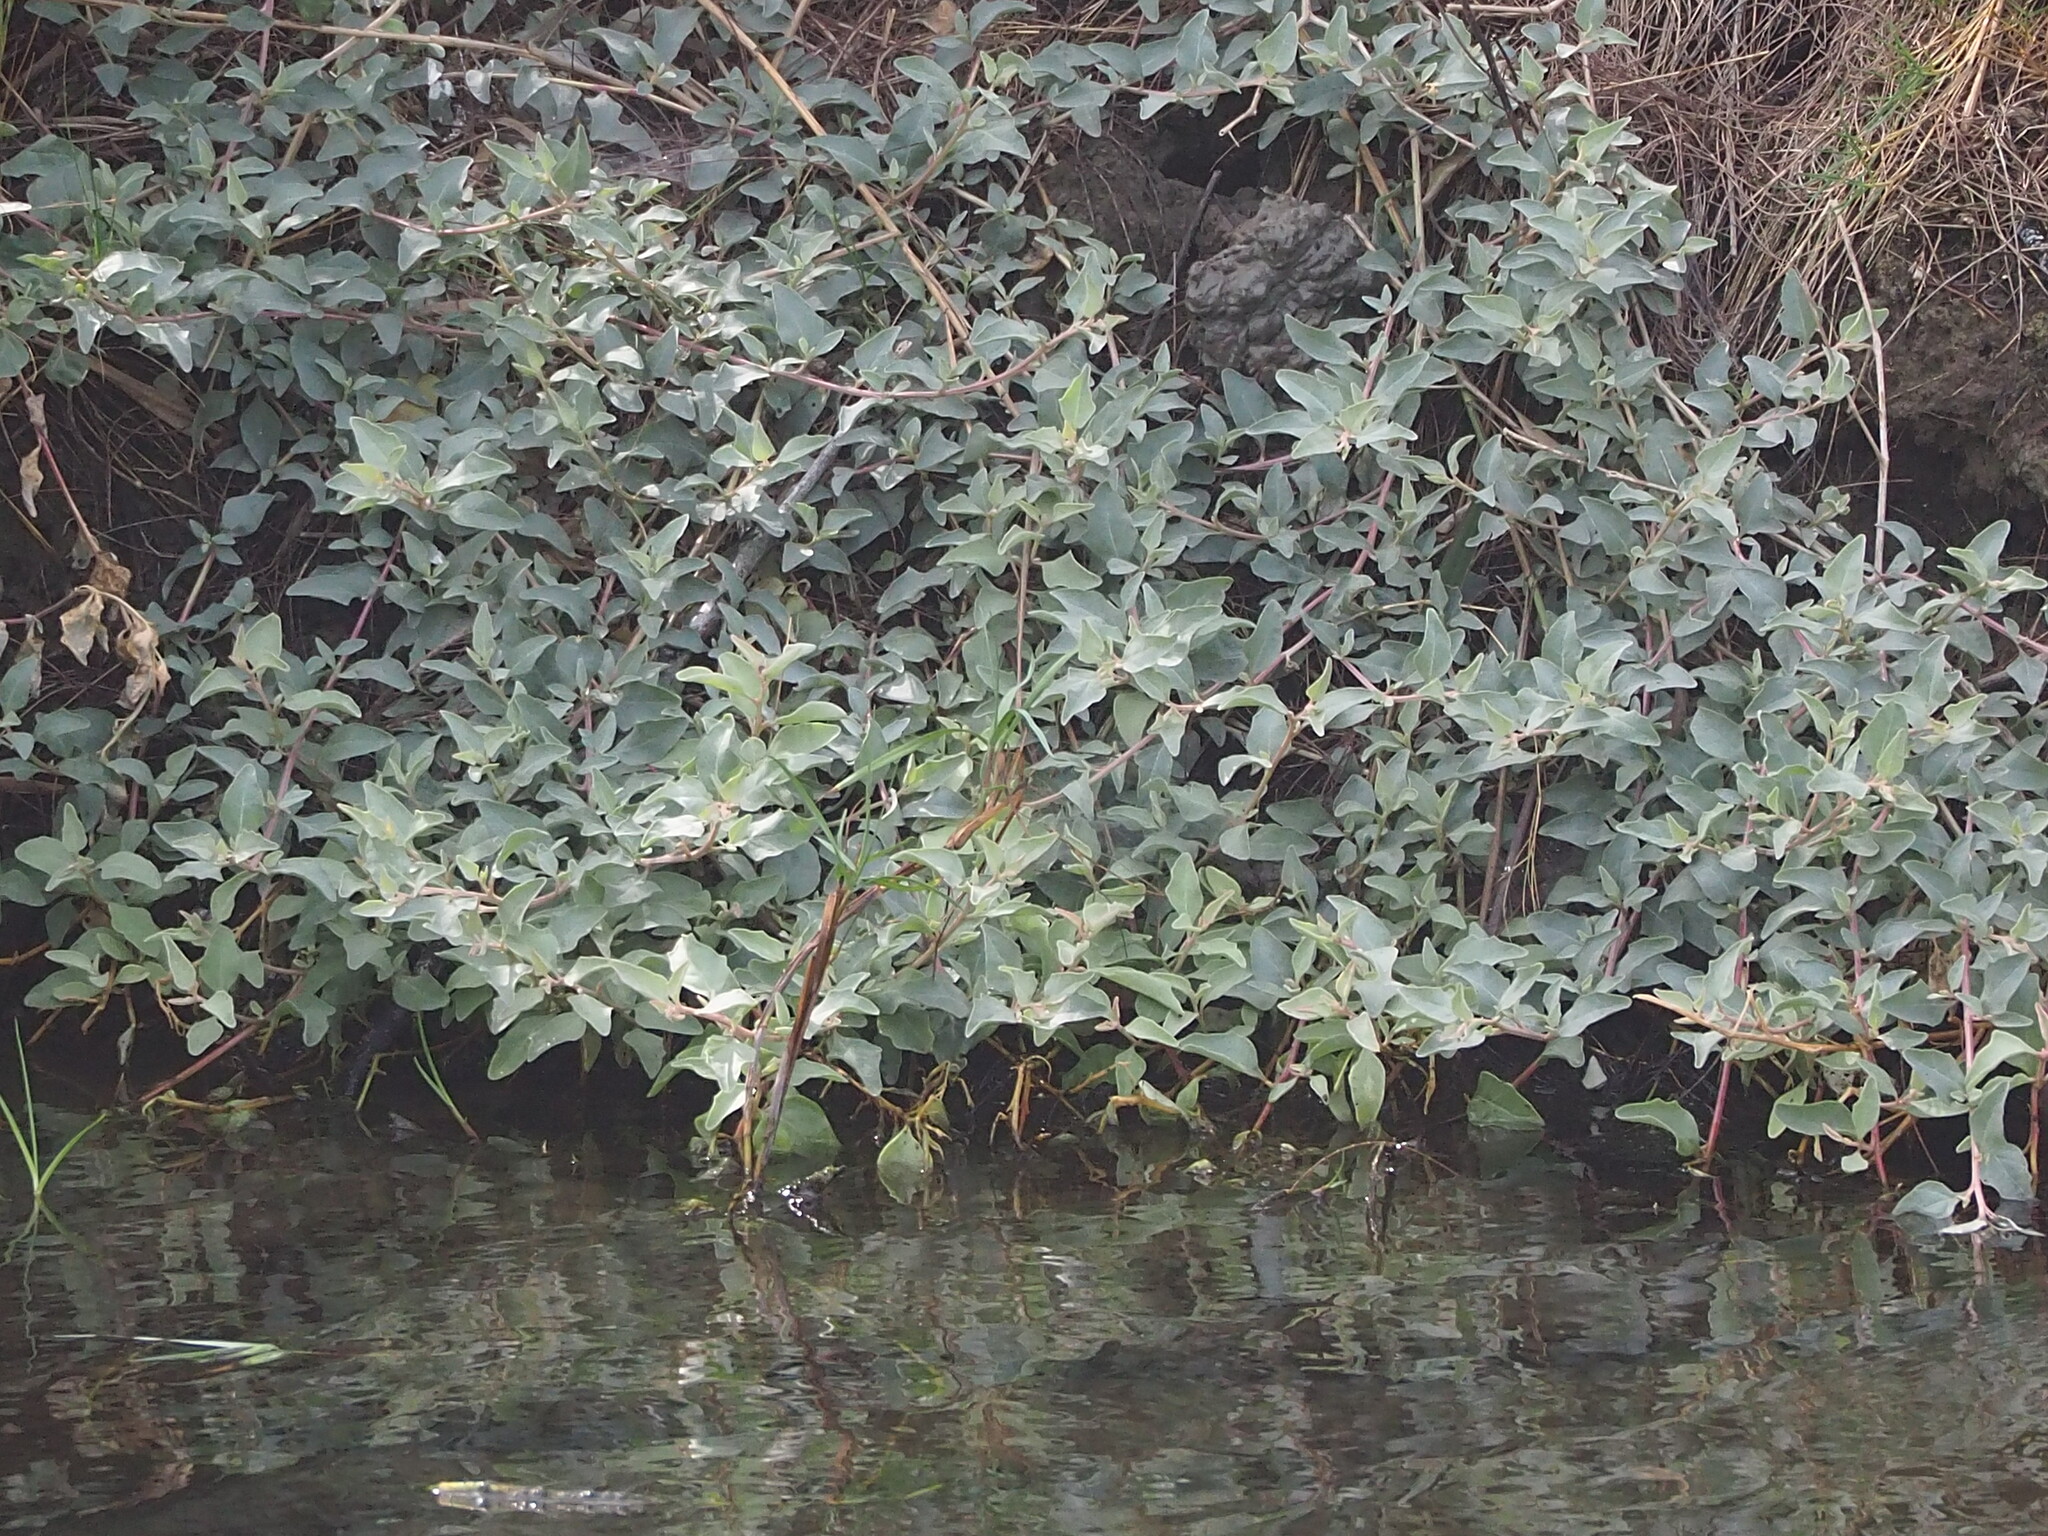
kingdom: Plantae
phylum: Tracheophyta
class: Magnoliopsida
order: Caryophyllales
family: Amaranthaceae
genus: Atriplex
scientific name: Atriplex maximowicziana
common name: Maximowicz's saltbush
